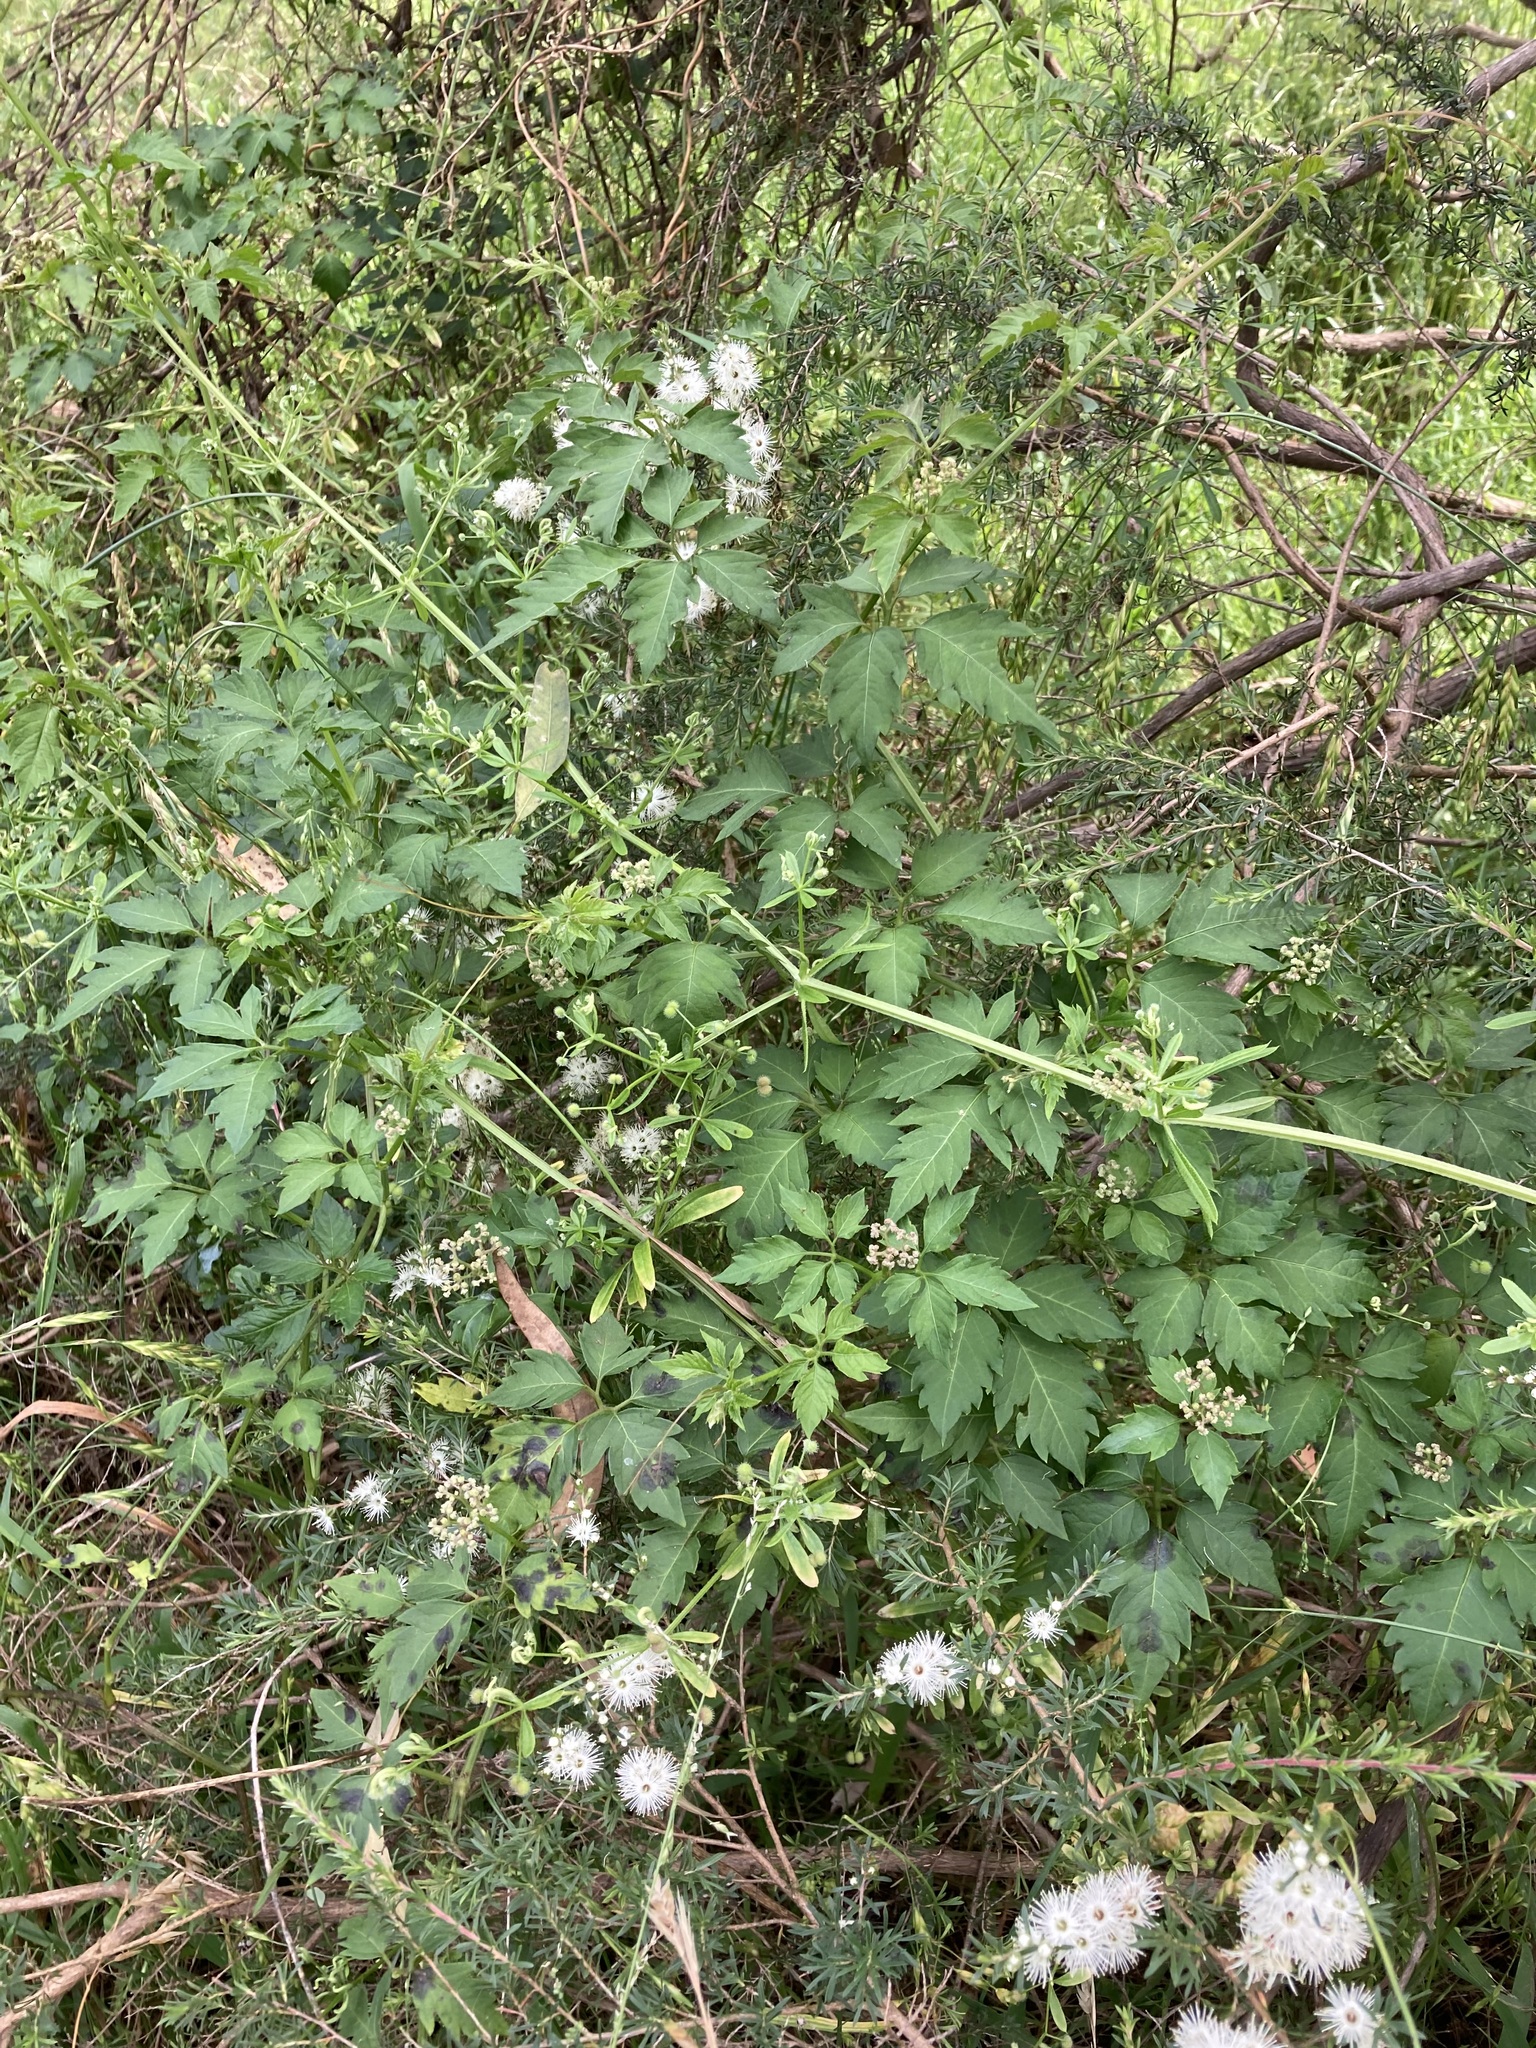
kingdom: Plantae
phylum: Tracheophyta
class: Magnoliopsida
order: Vitales
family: Vitaceae
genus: Causonis
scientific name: Causonis clematidea
